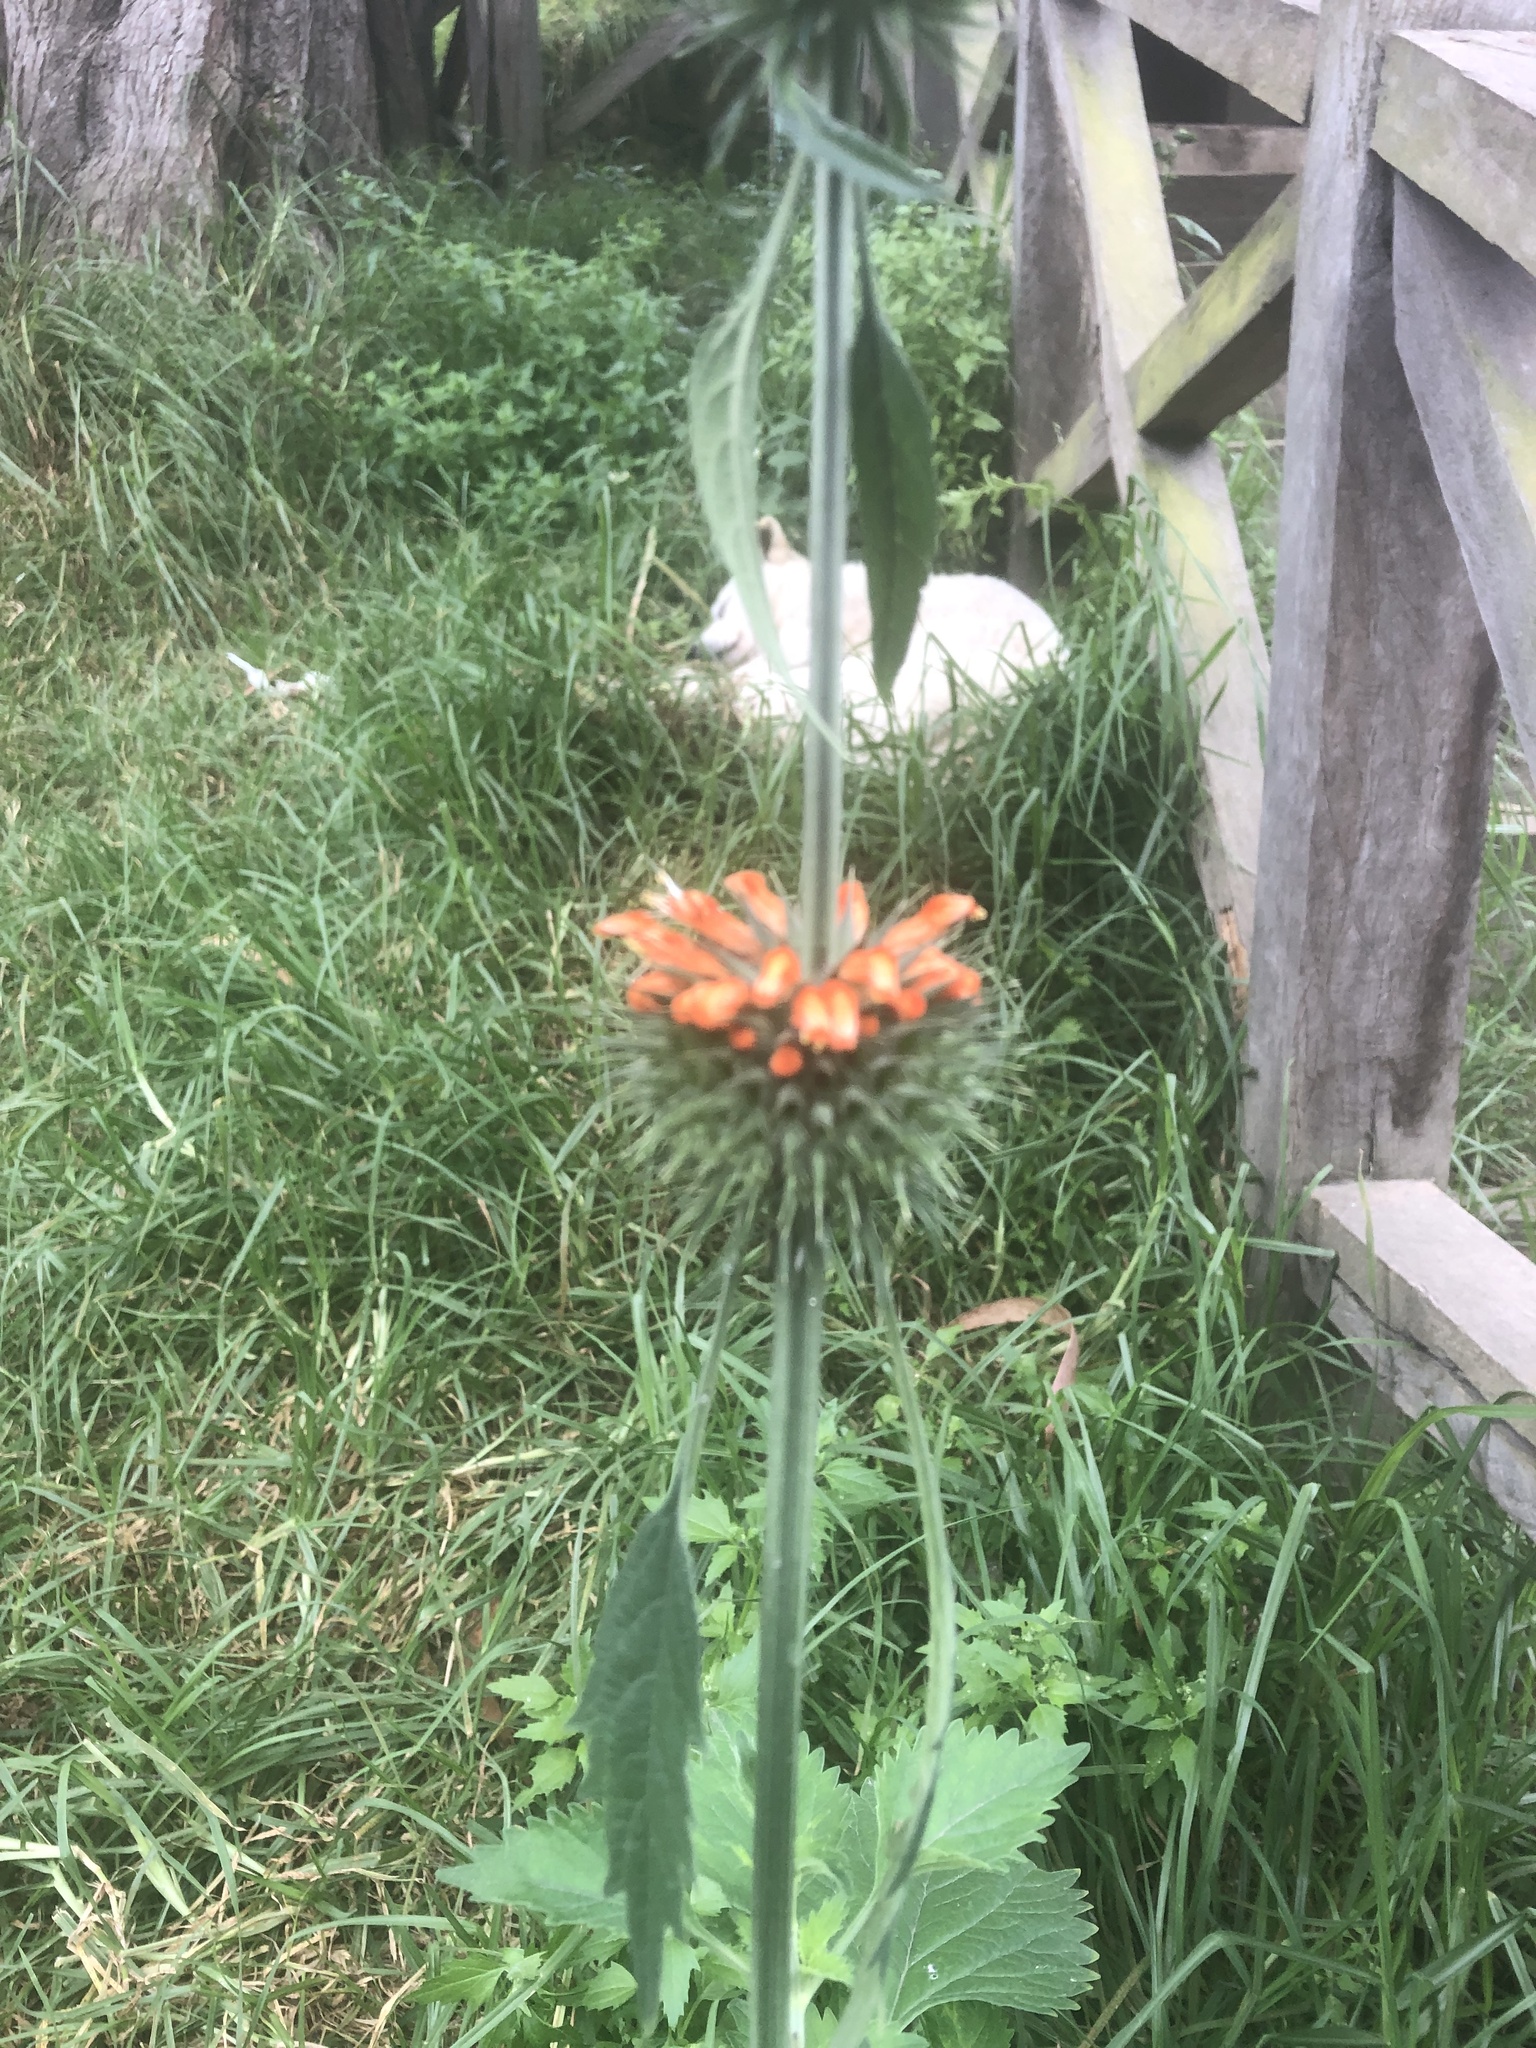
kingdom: Plantae
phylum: Tracheophyta
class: Magnoliopsida
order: Lamiales
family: Lamiaceae
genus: Leonotis
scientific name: Leonotis nepetifolia
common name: Christmas candlestick
